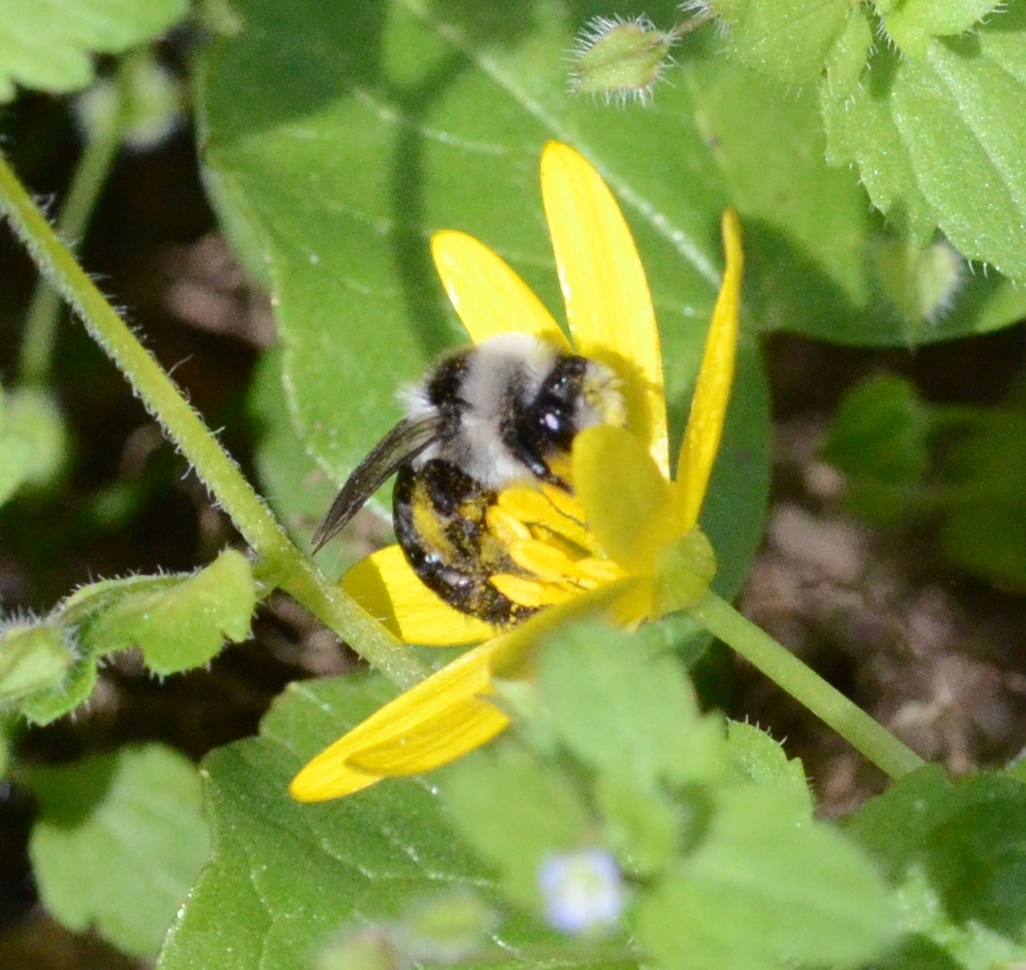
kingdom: Animalia
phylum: Arthropoda
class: Insecta
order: Hymenoptera
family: Andrenidae
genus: Andrena
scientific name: Andrena cineraria
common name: Ashy mining bee
